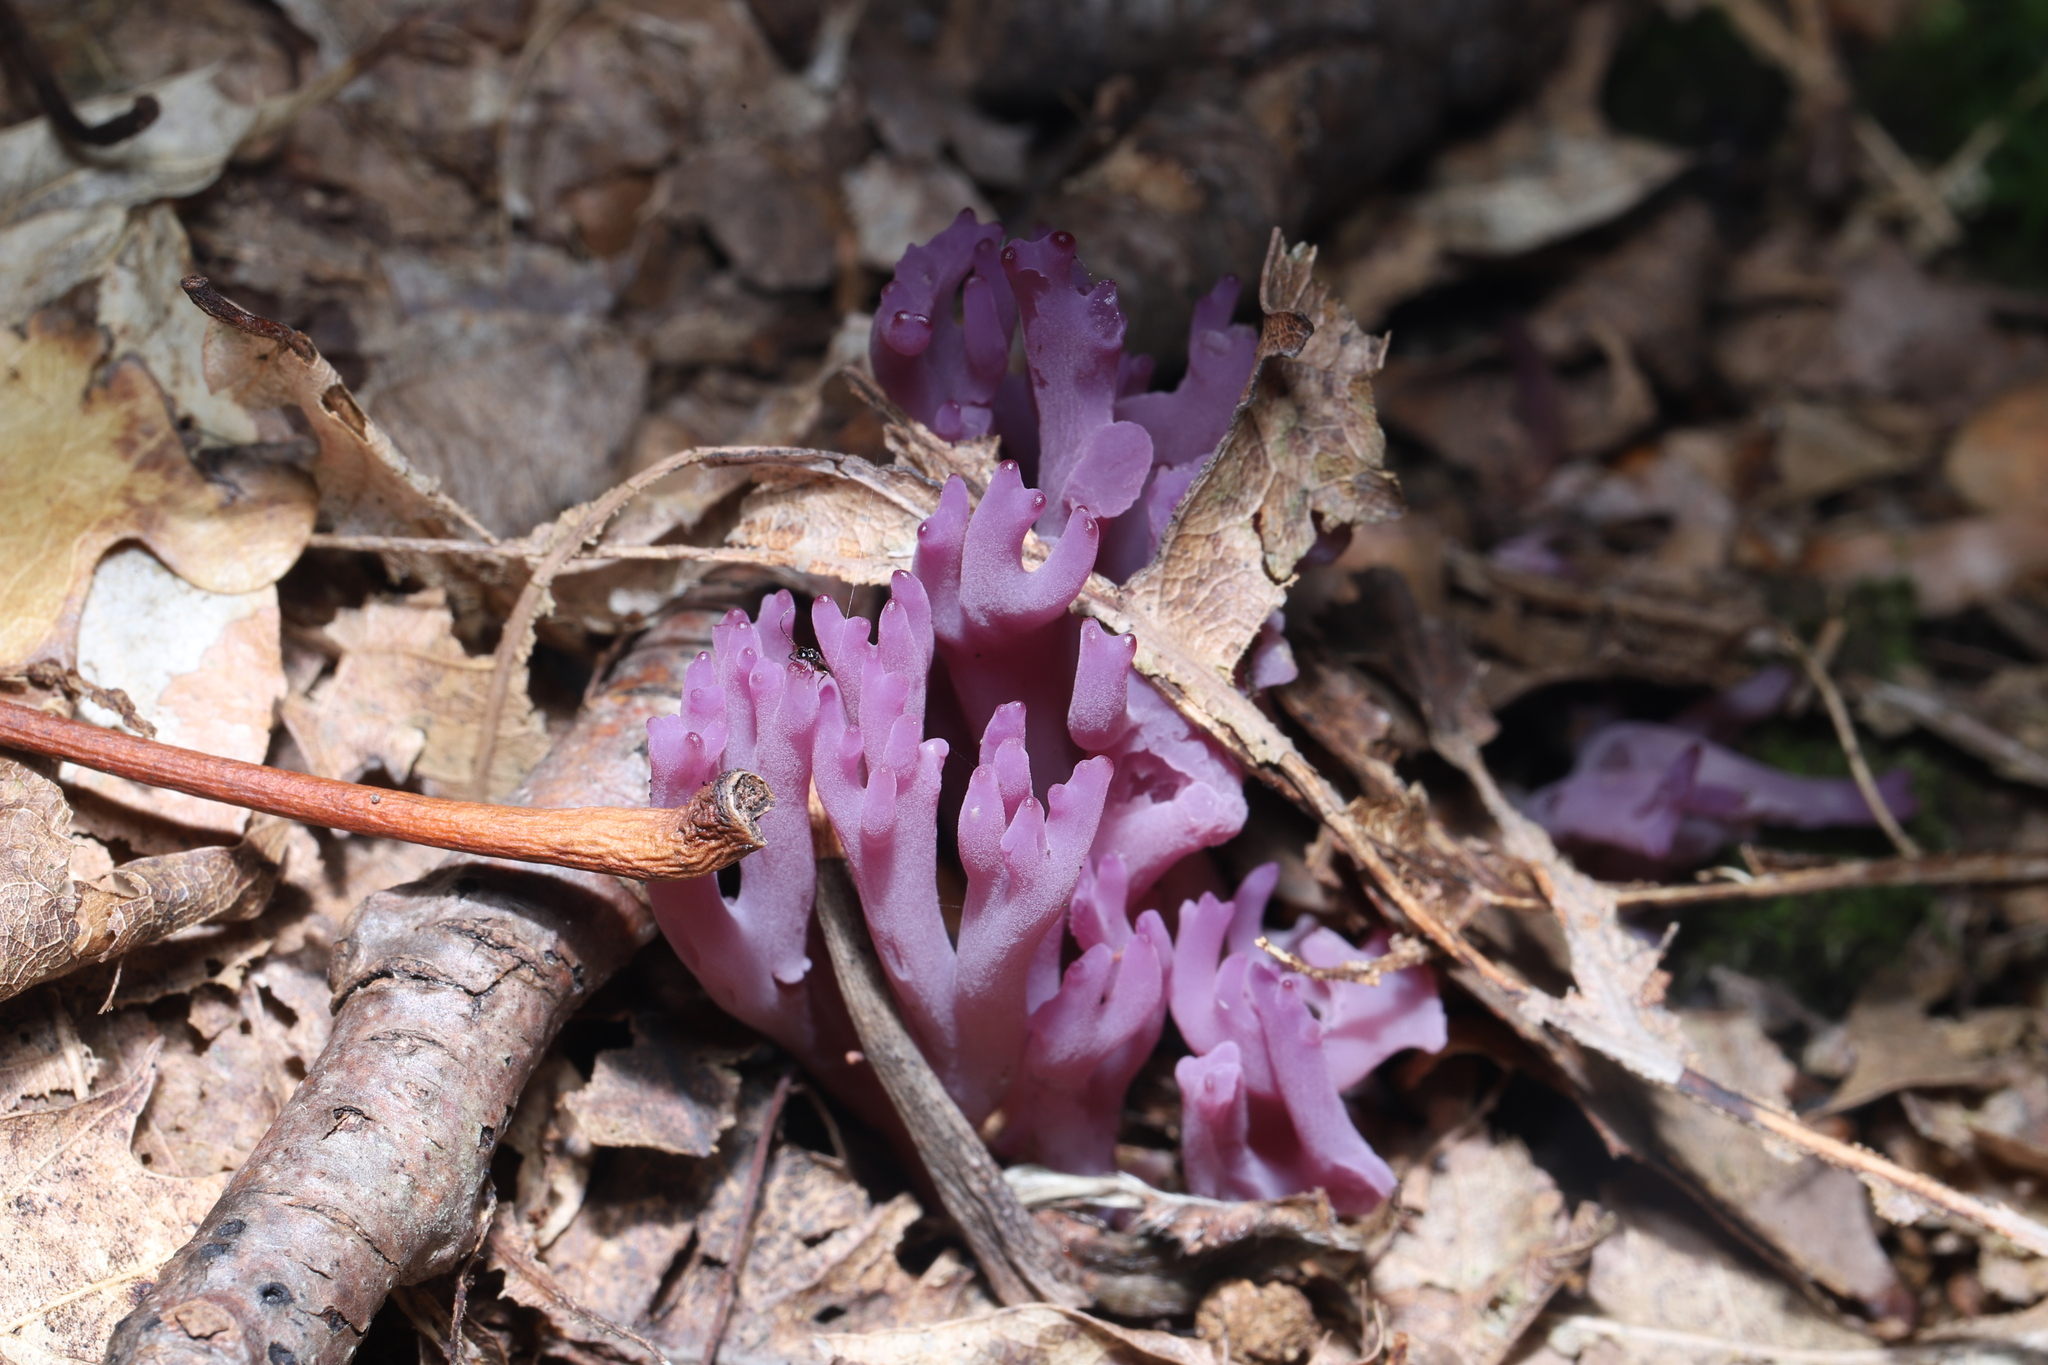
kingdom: Fungi
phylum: Basidiomycota
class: Agaricomycetes
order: Agaricales
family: Clavariaceae
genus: Clavaria
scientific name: Clavaria zollingeri
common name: Violet coral
